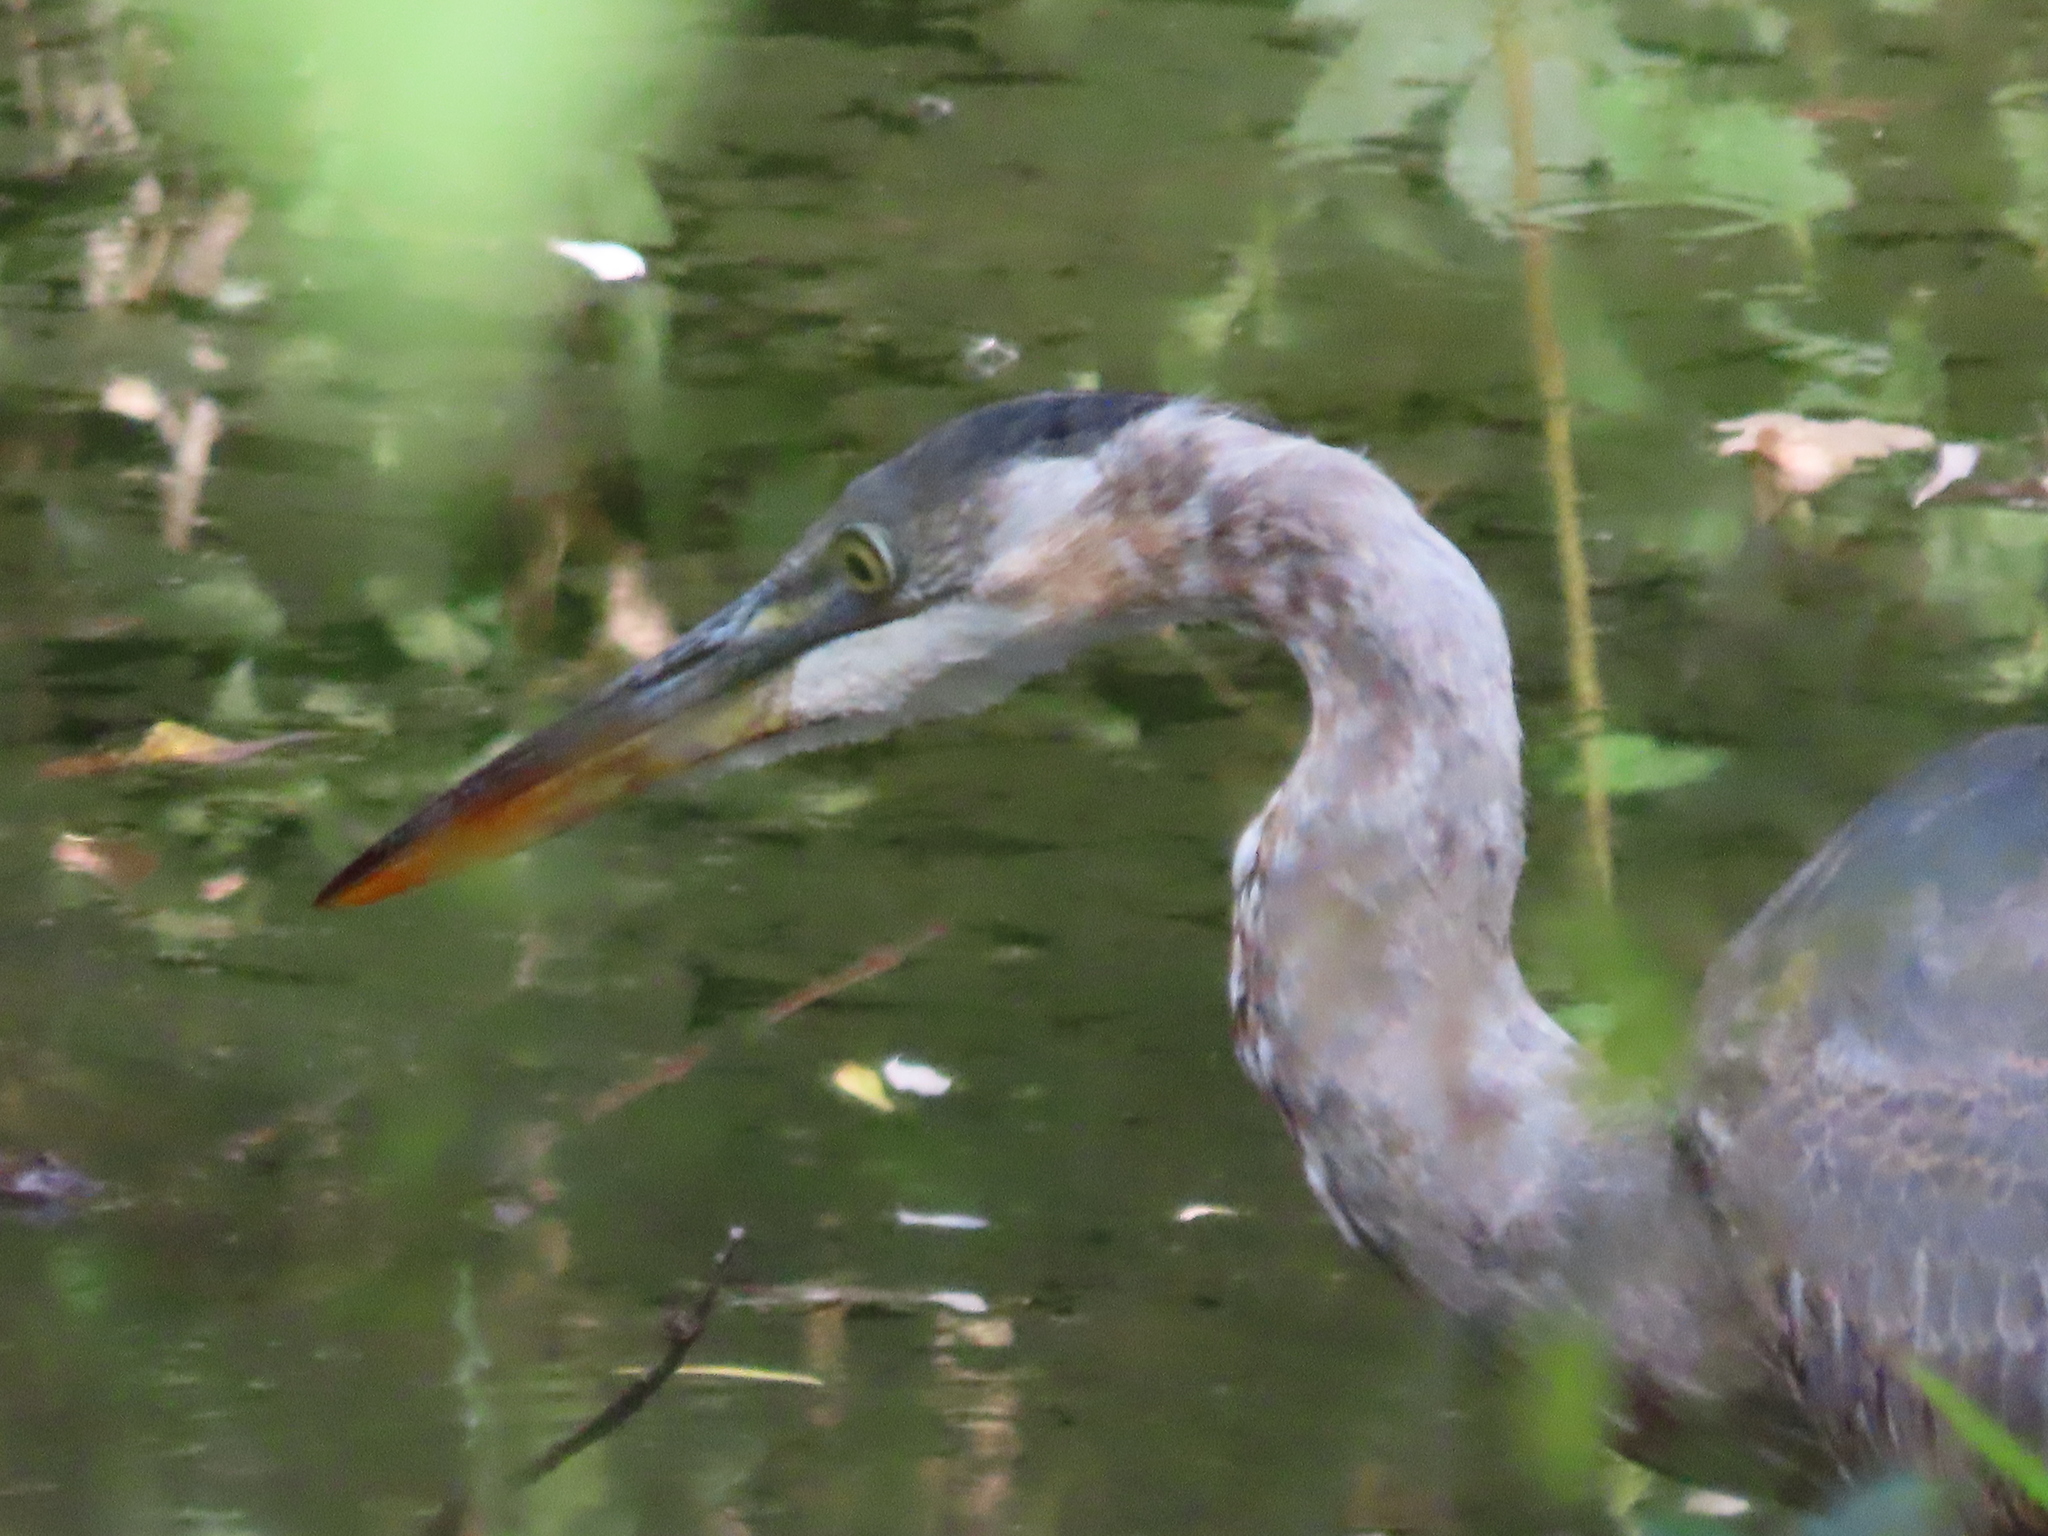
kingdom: Animalia
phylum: Chordata
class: Aves
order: Pelecaniformes
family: Ardeidae
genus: Ardea
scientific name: Ardea herodias
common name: Great blue heron
